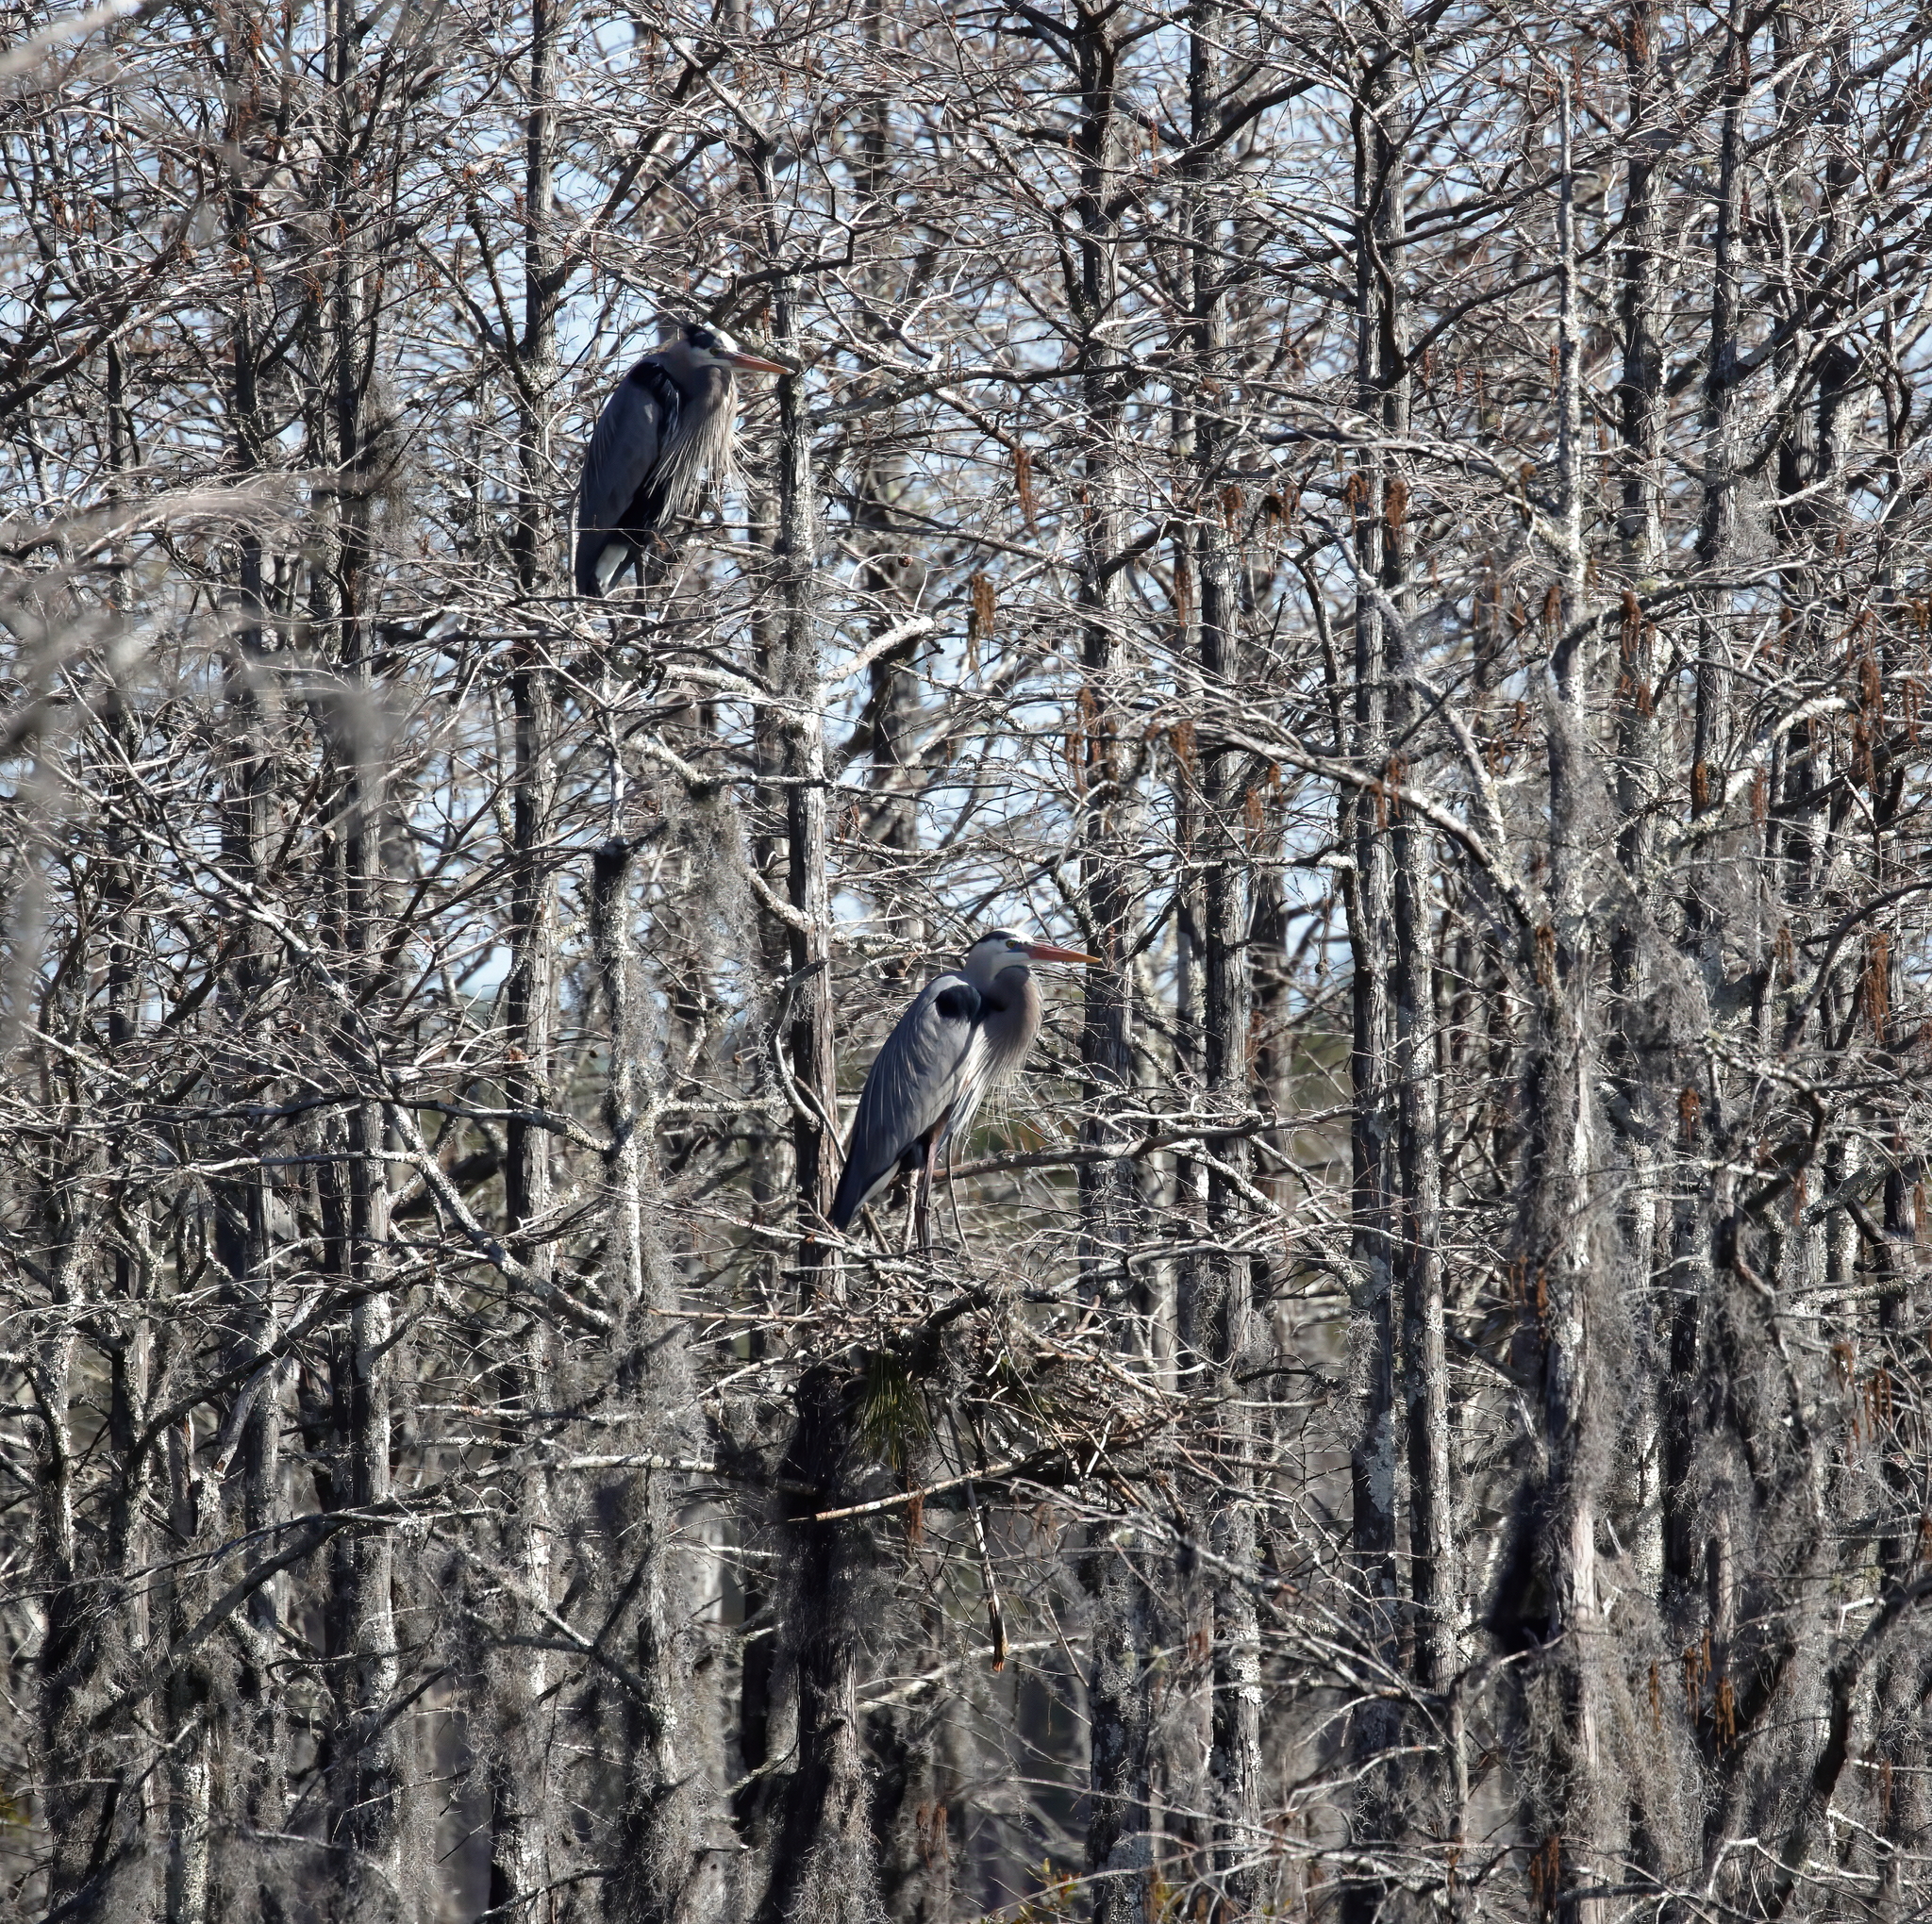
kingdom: Animalia
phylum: Chordata
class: Aves
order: Pelecaniformes
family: Ardeidae
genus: Ardea
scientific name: Ardea herodias
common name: Great blue heron
